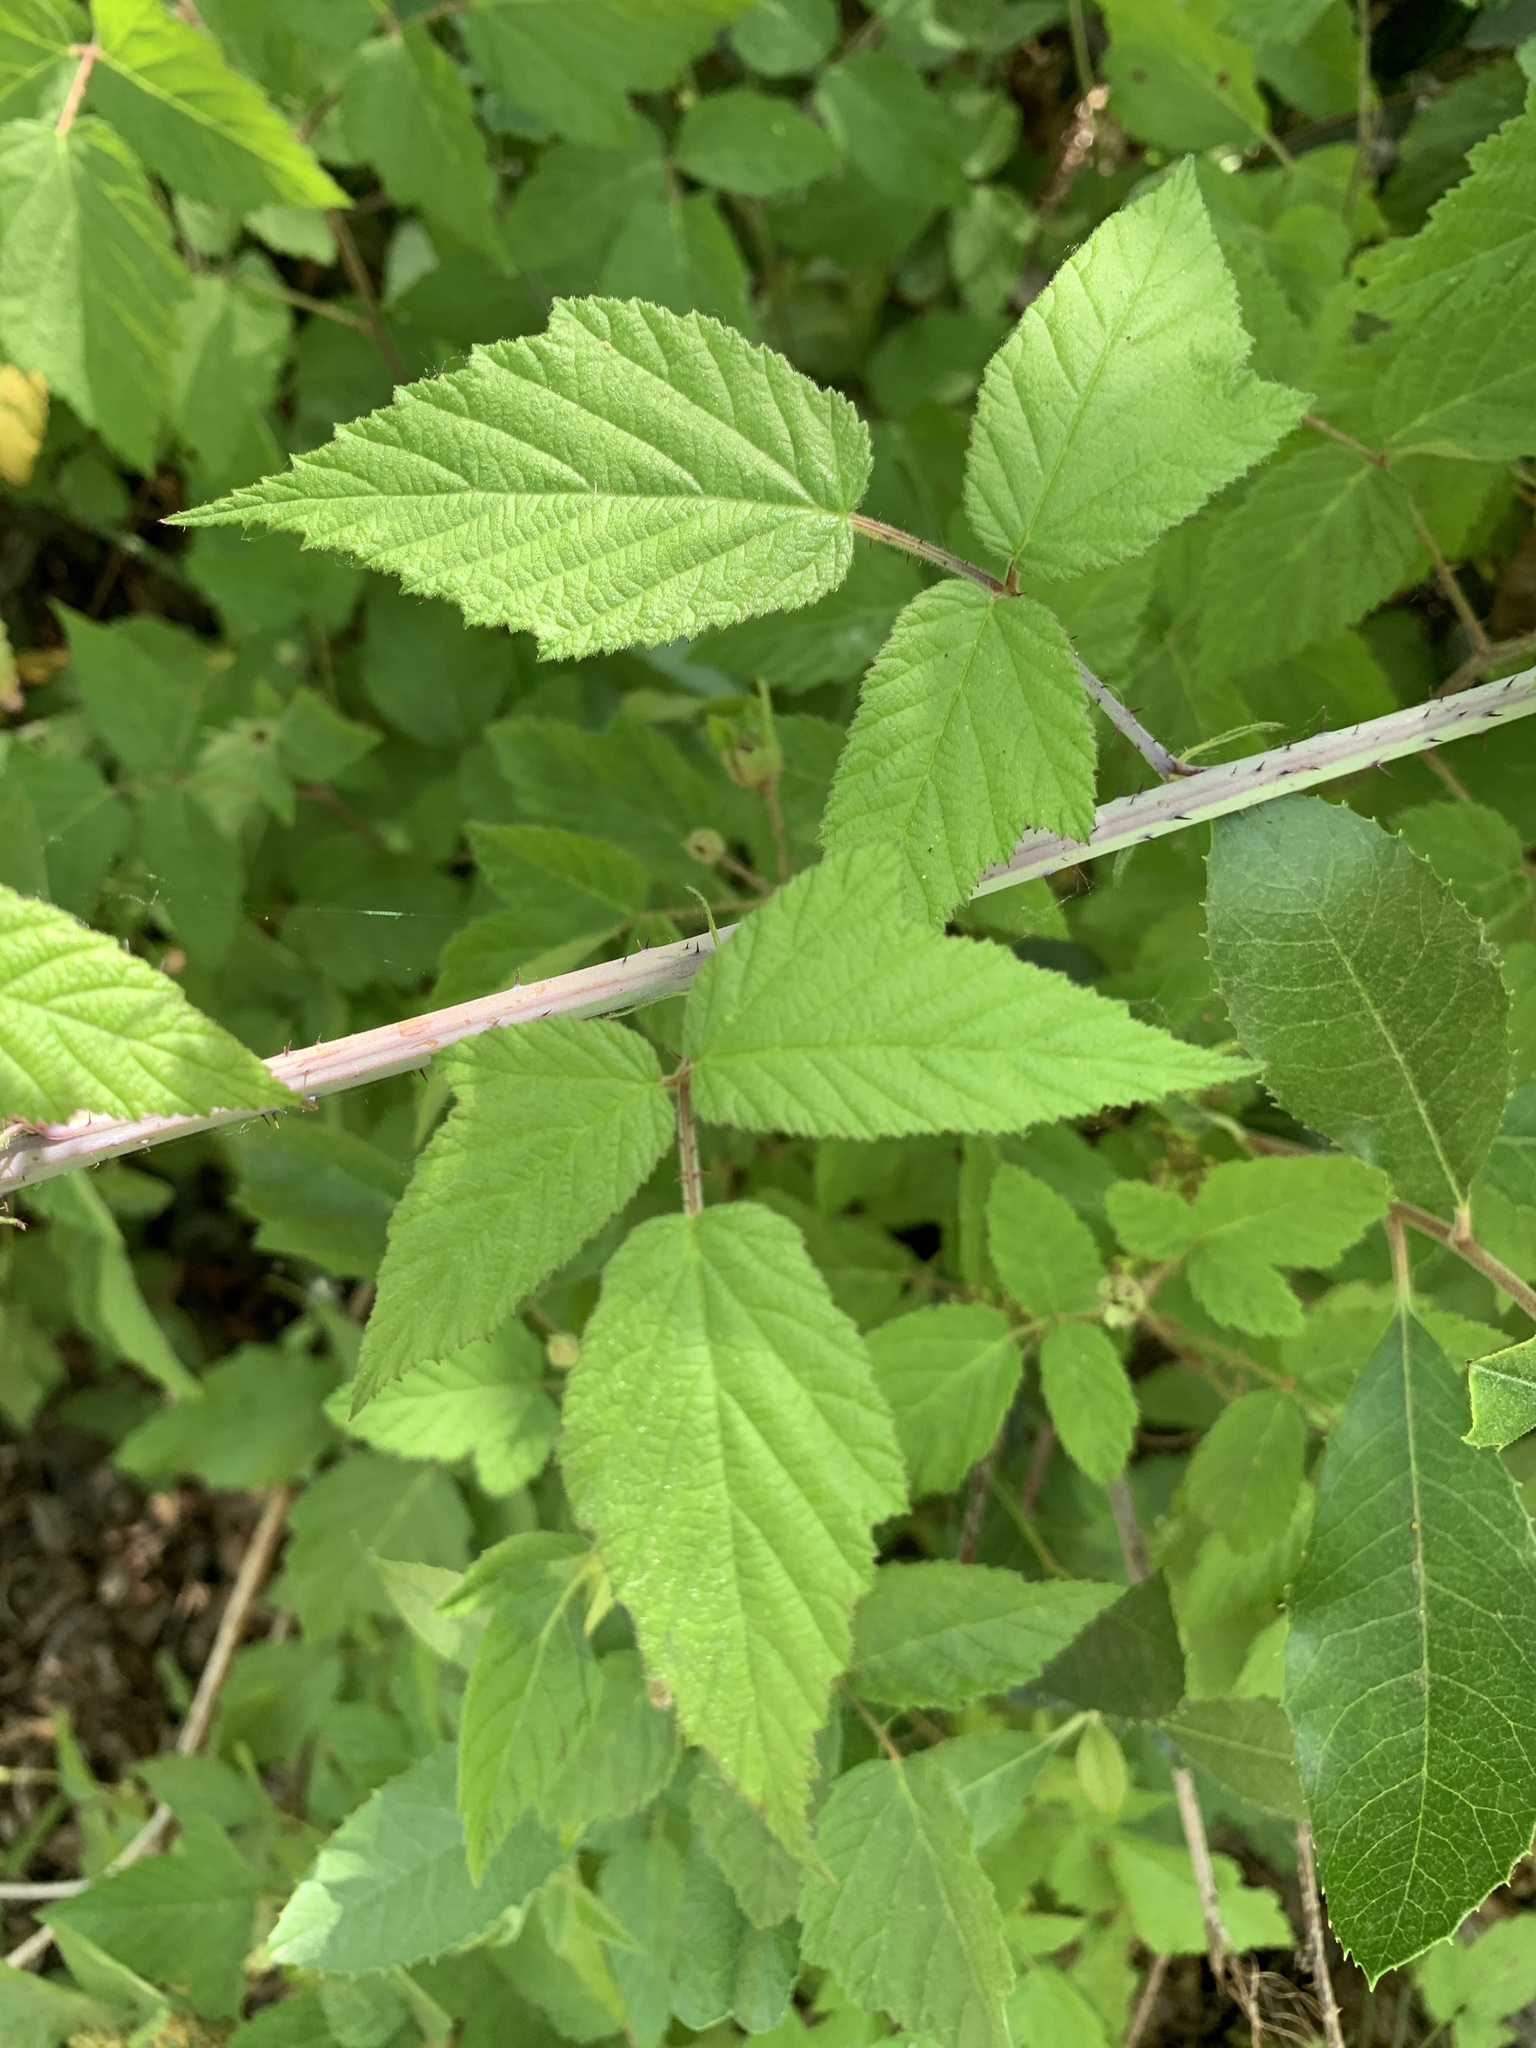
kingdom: Plantae
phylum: Tracheophyta
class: Magnoliopsida
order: Rosales
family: Rosaceae
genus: Rubus
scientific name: Rubus ursinus
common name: Pacific blackberry
